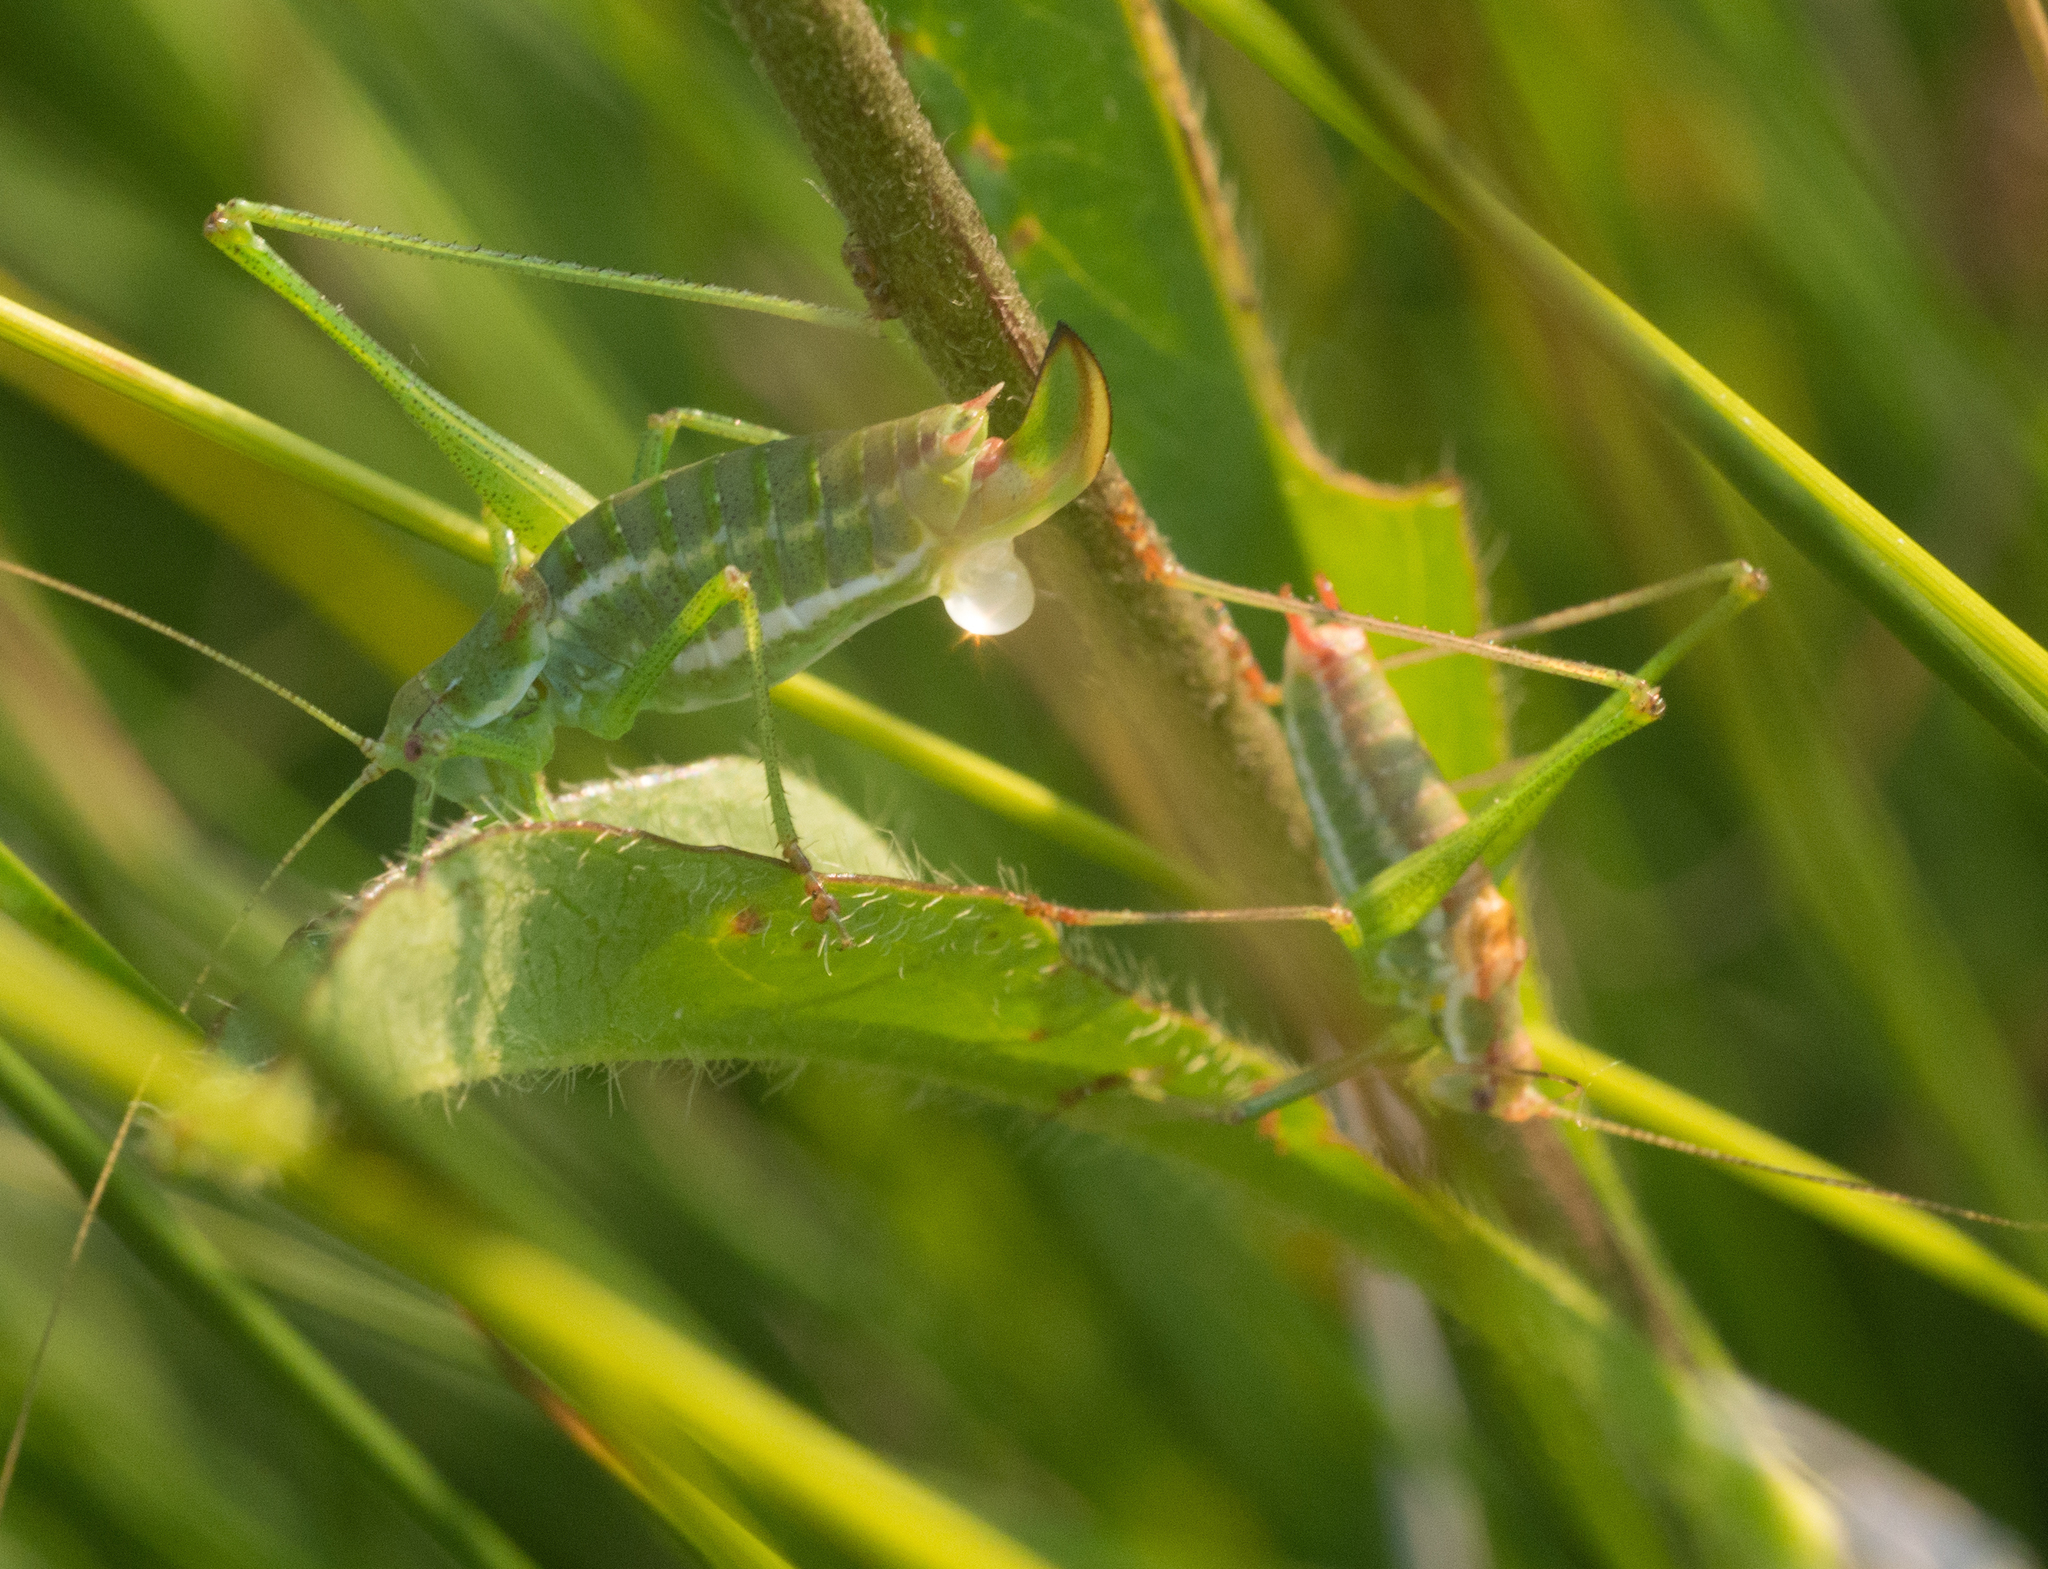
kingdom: Animalia
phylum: Arthropoda
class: Insecta
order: Orthoptera
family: Tettigoniidae
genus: Leptophyes
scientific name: Leptophyes albovittata
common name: Striped bush-cricket
